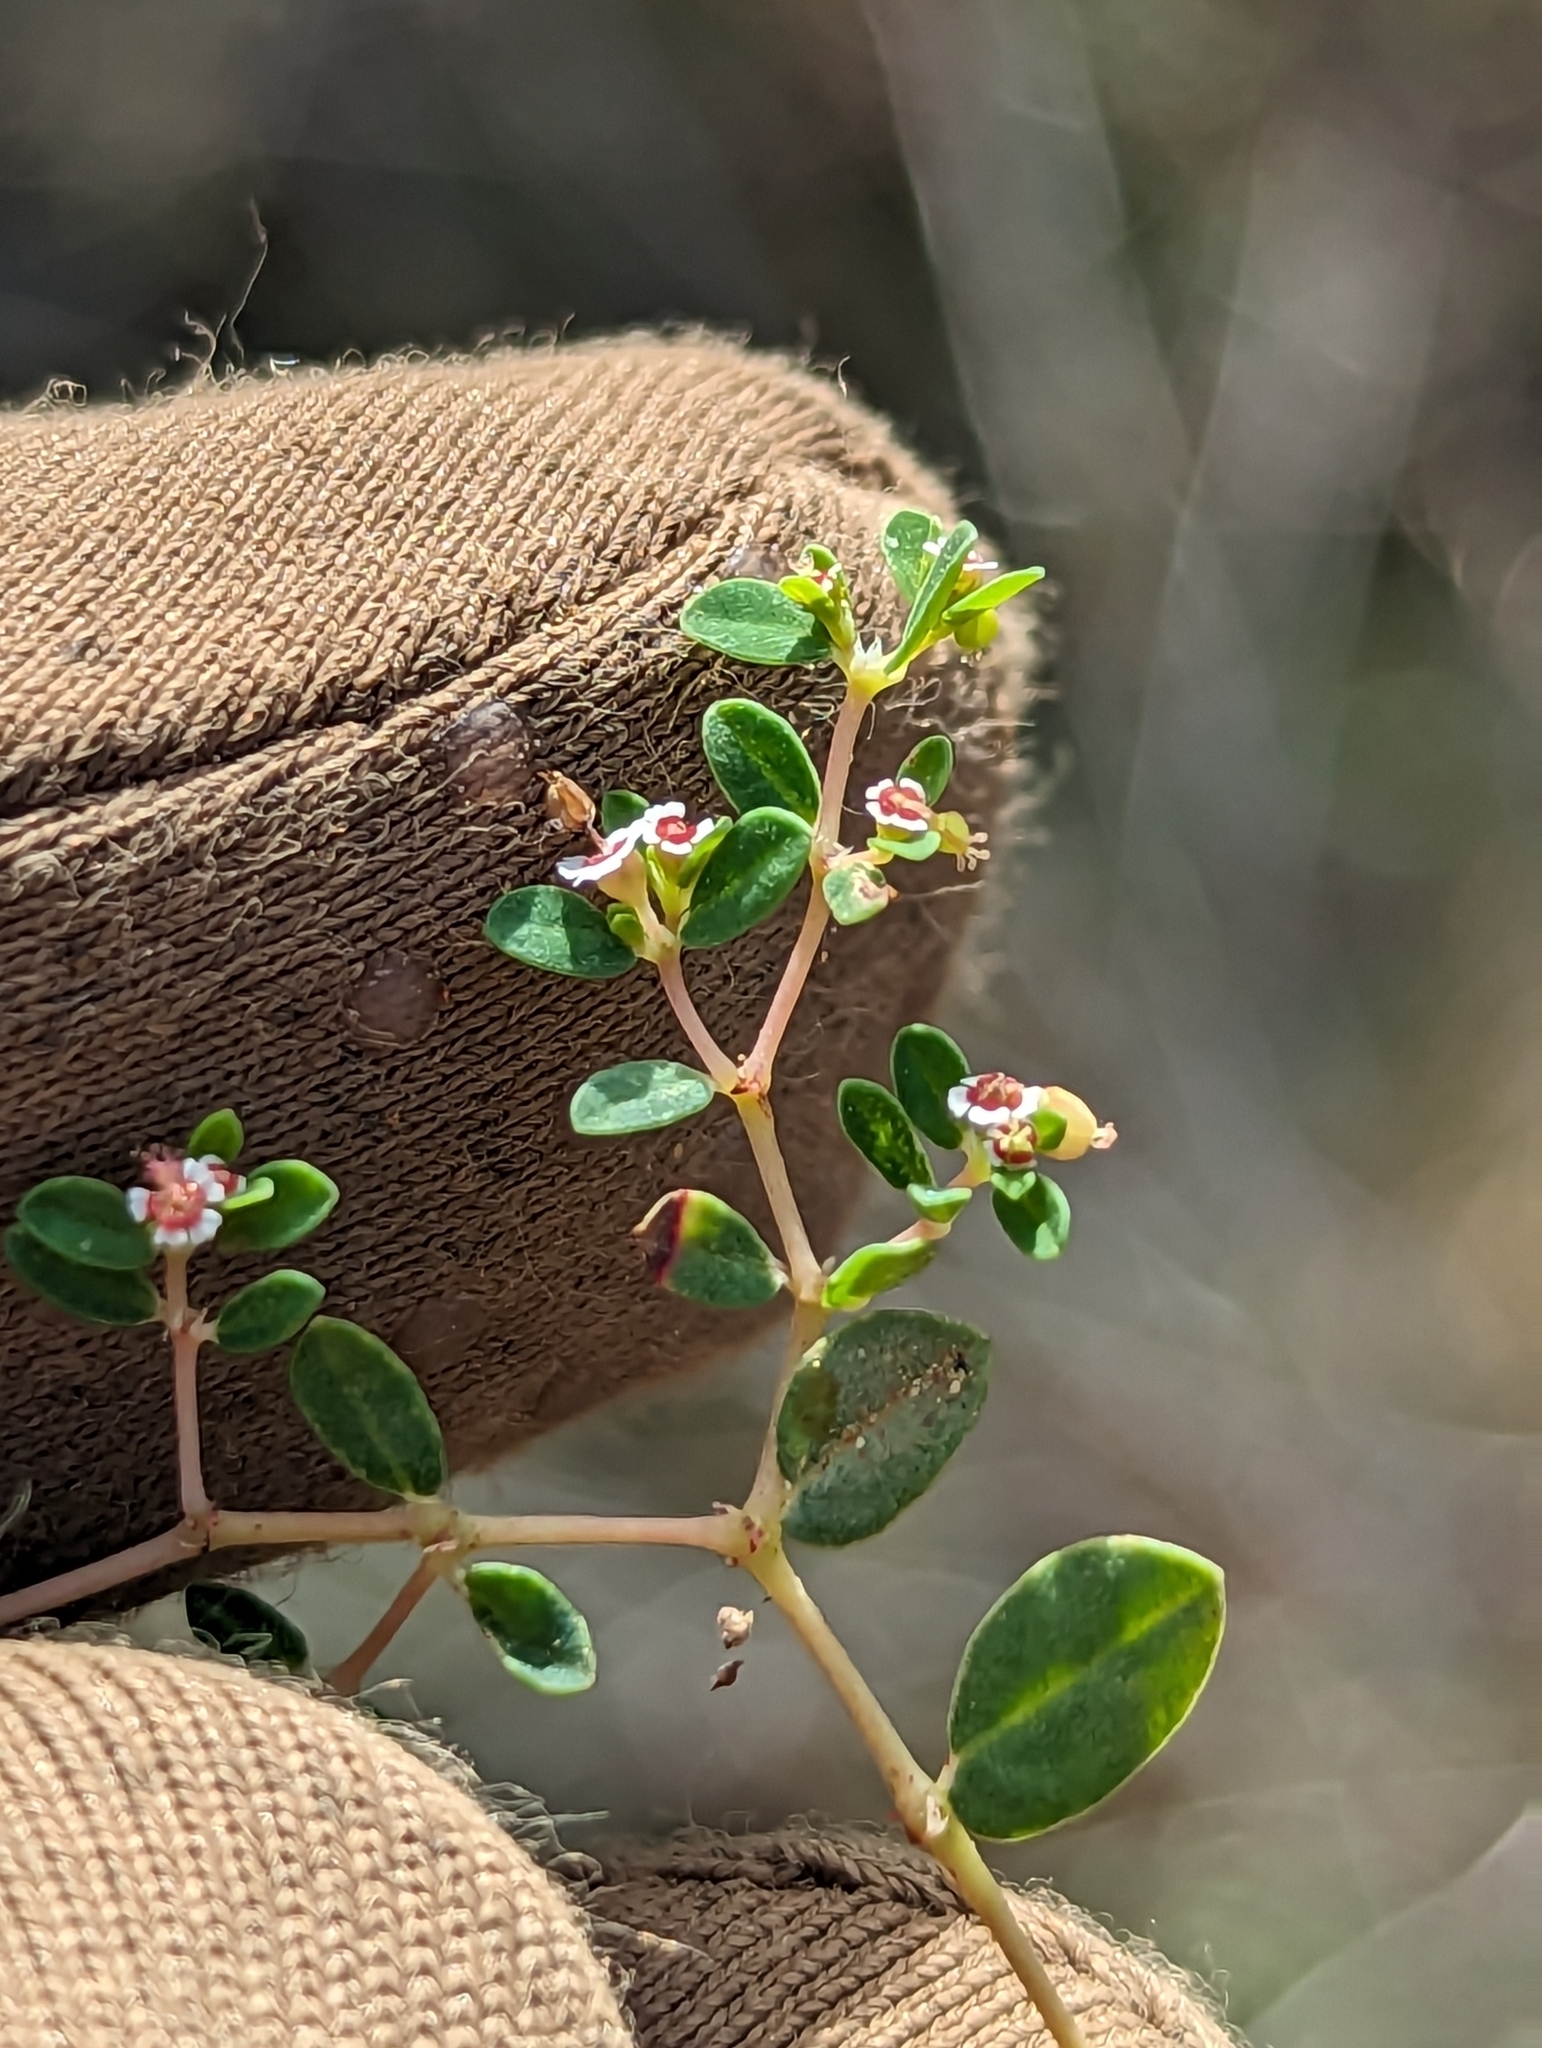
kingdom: Plantae
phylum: Tracheophyta
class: Magnoliopsida
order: Malpighiales
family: Euphorbiaceae
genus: Euphorbia
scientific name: Euphorbia polycarpa
